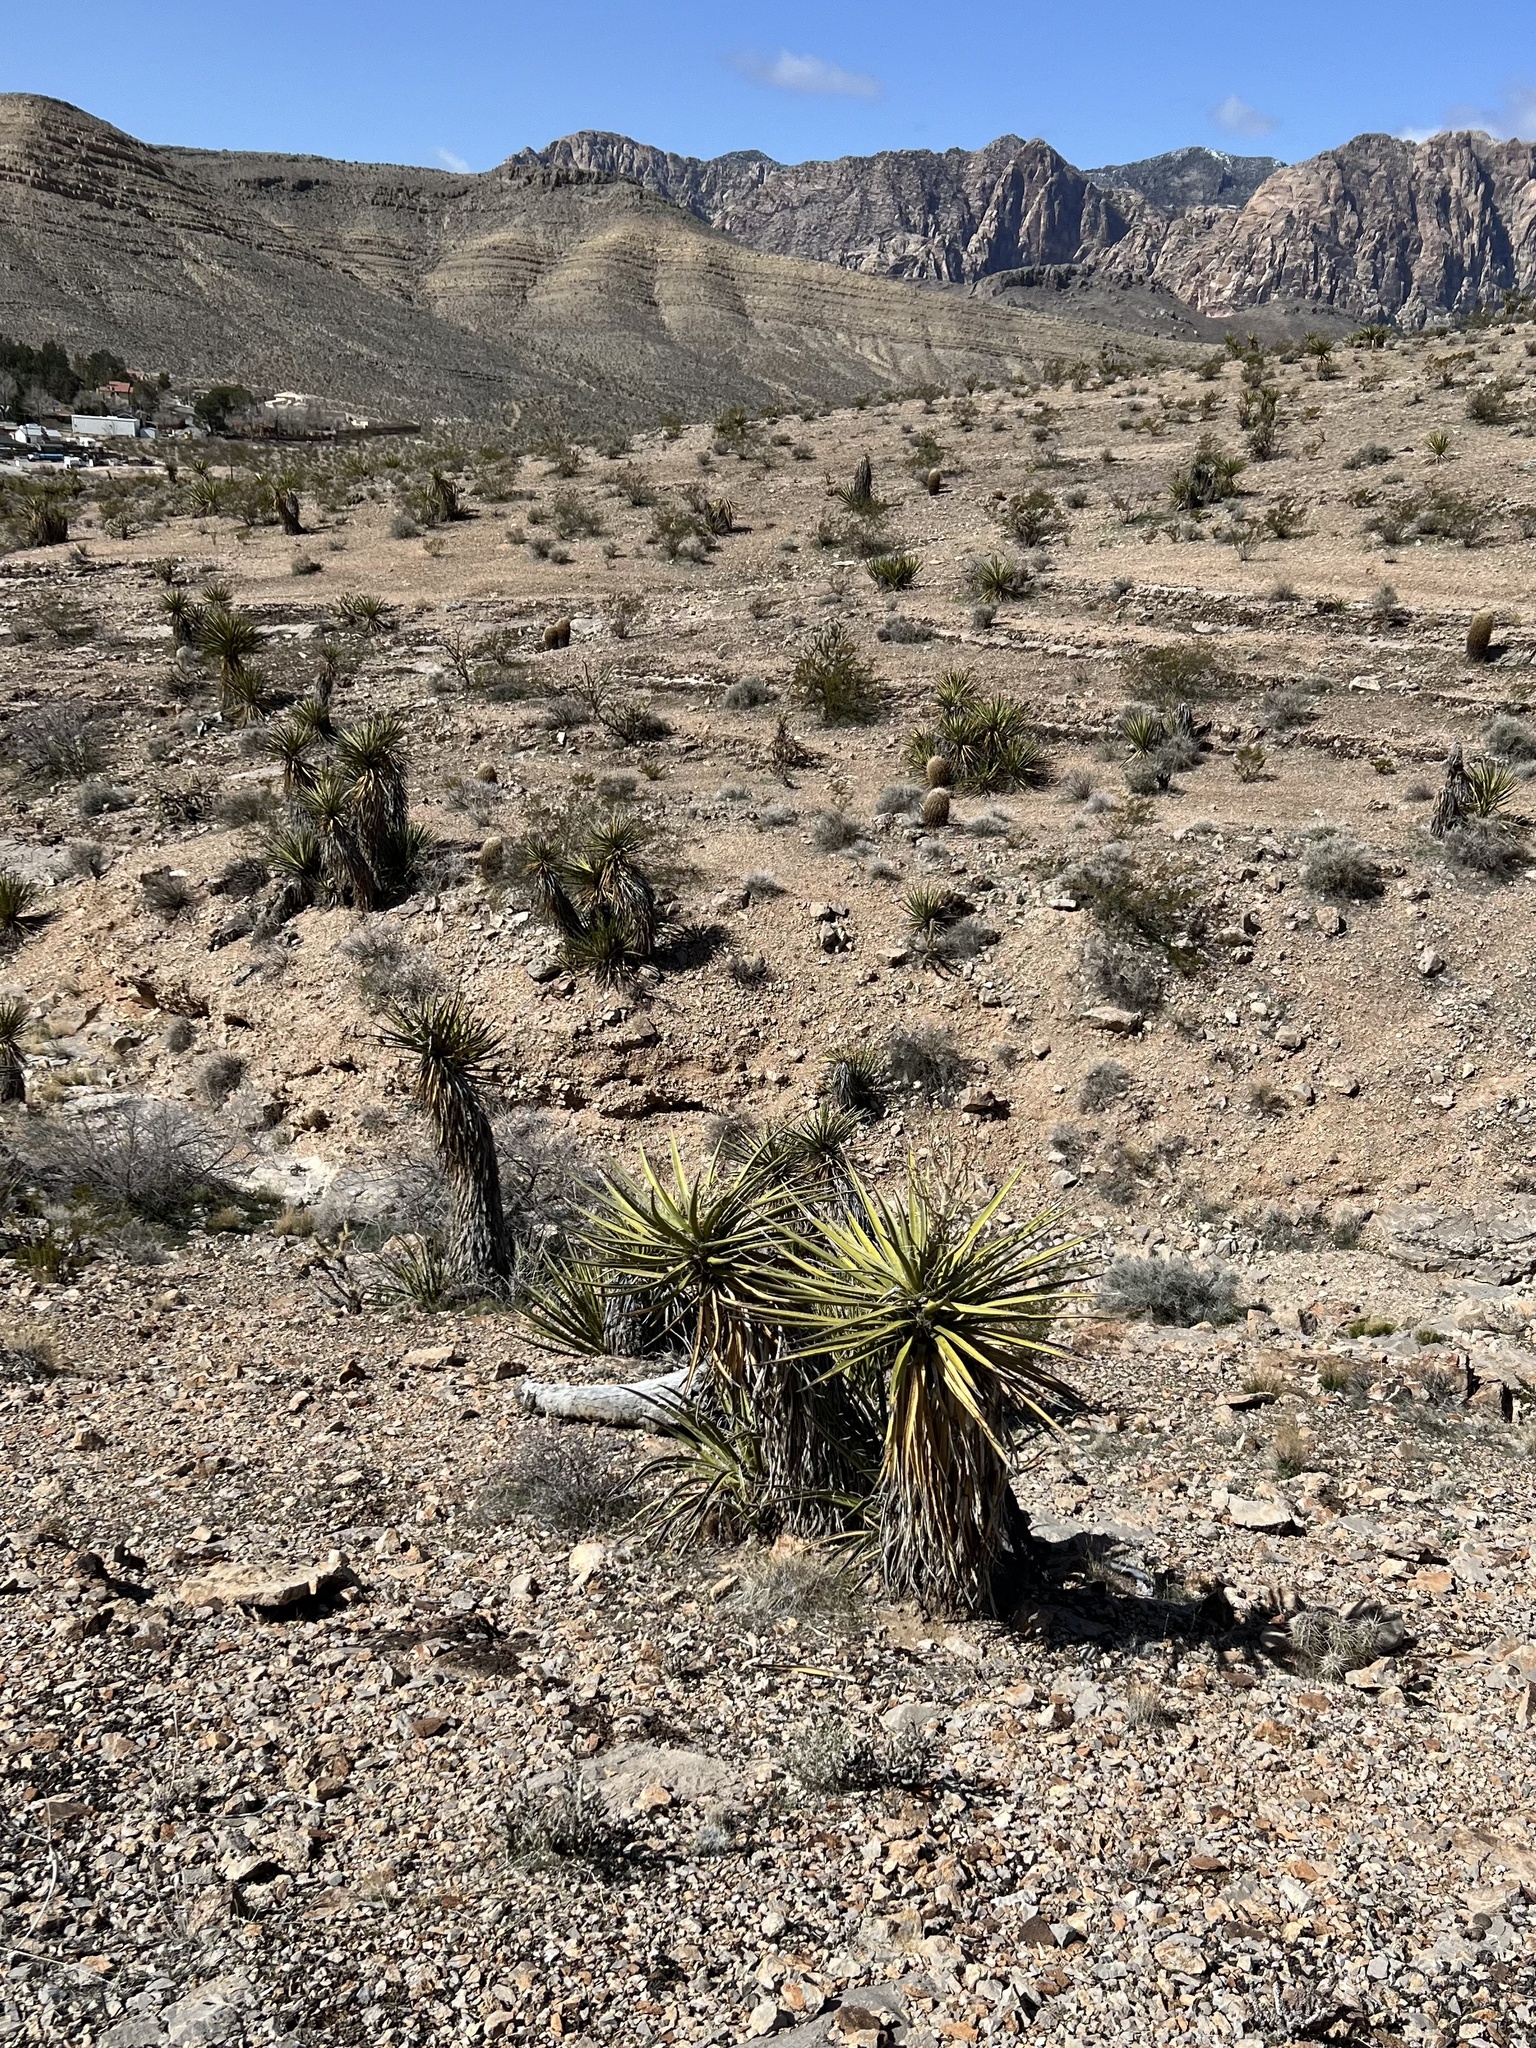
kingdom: Plantae
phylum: Tracheophyta
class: Liliopsida
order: Asparagales
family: Asparagaceae
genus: Yucca
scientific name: Yucca schidigera
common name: Mojave yucca
